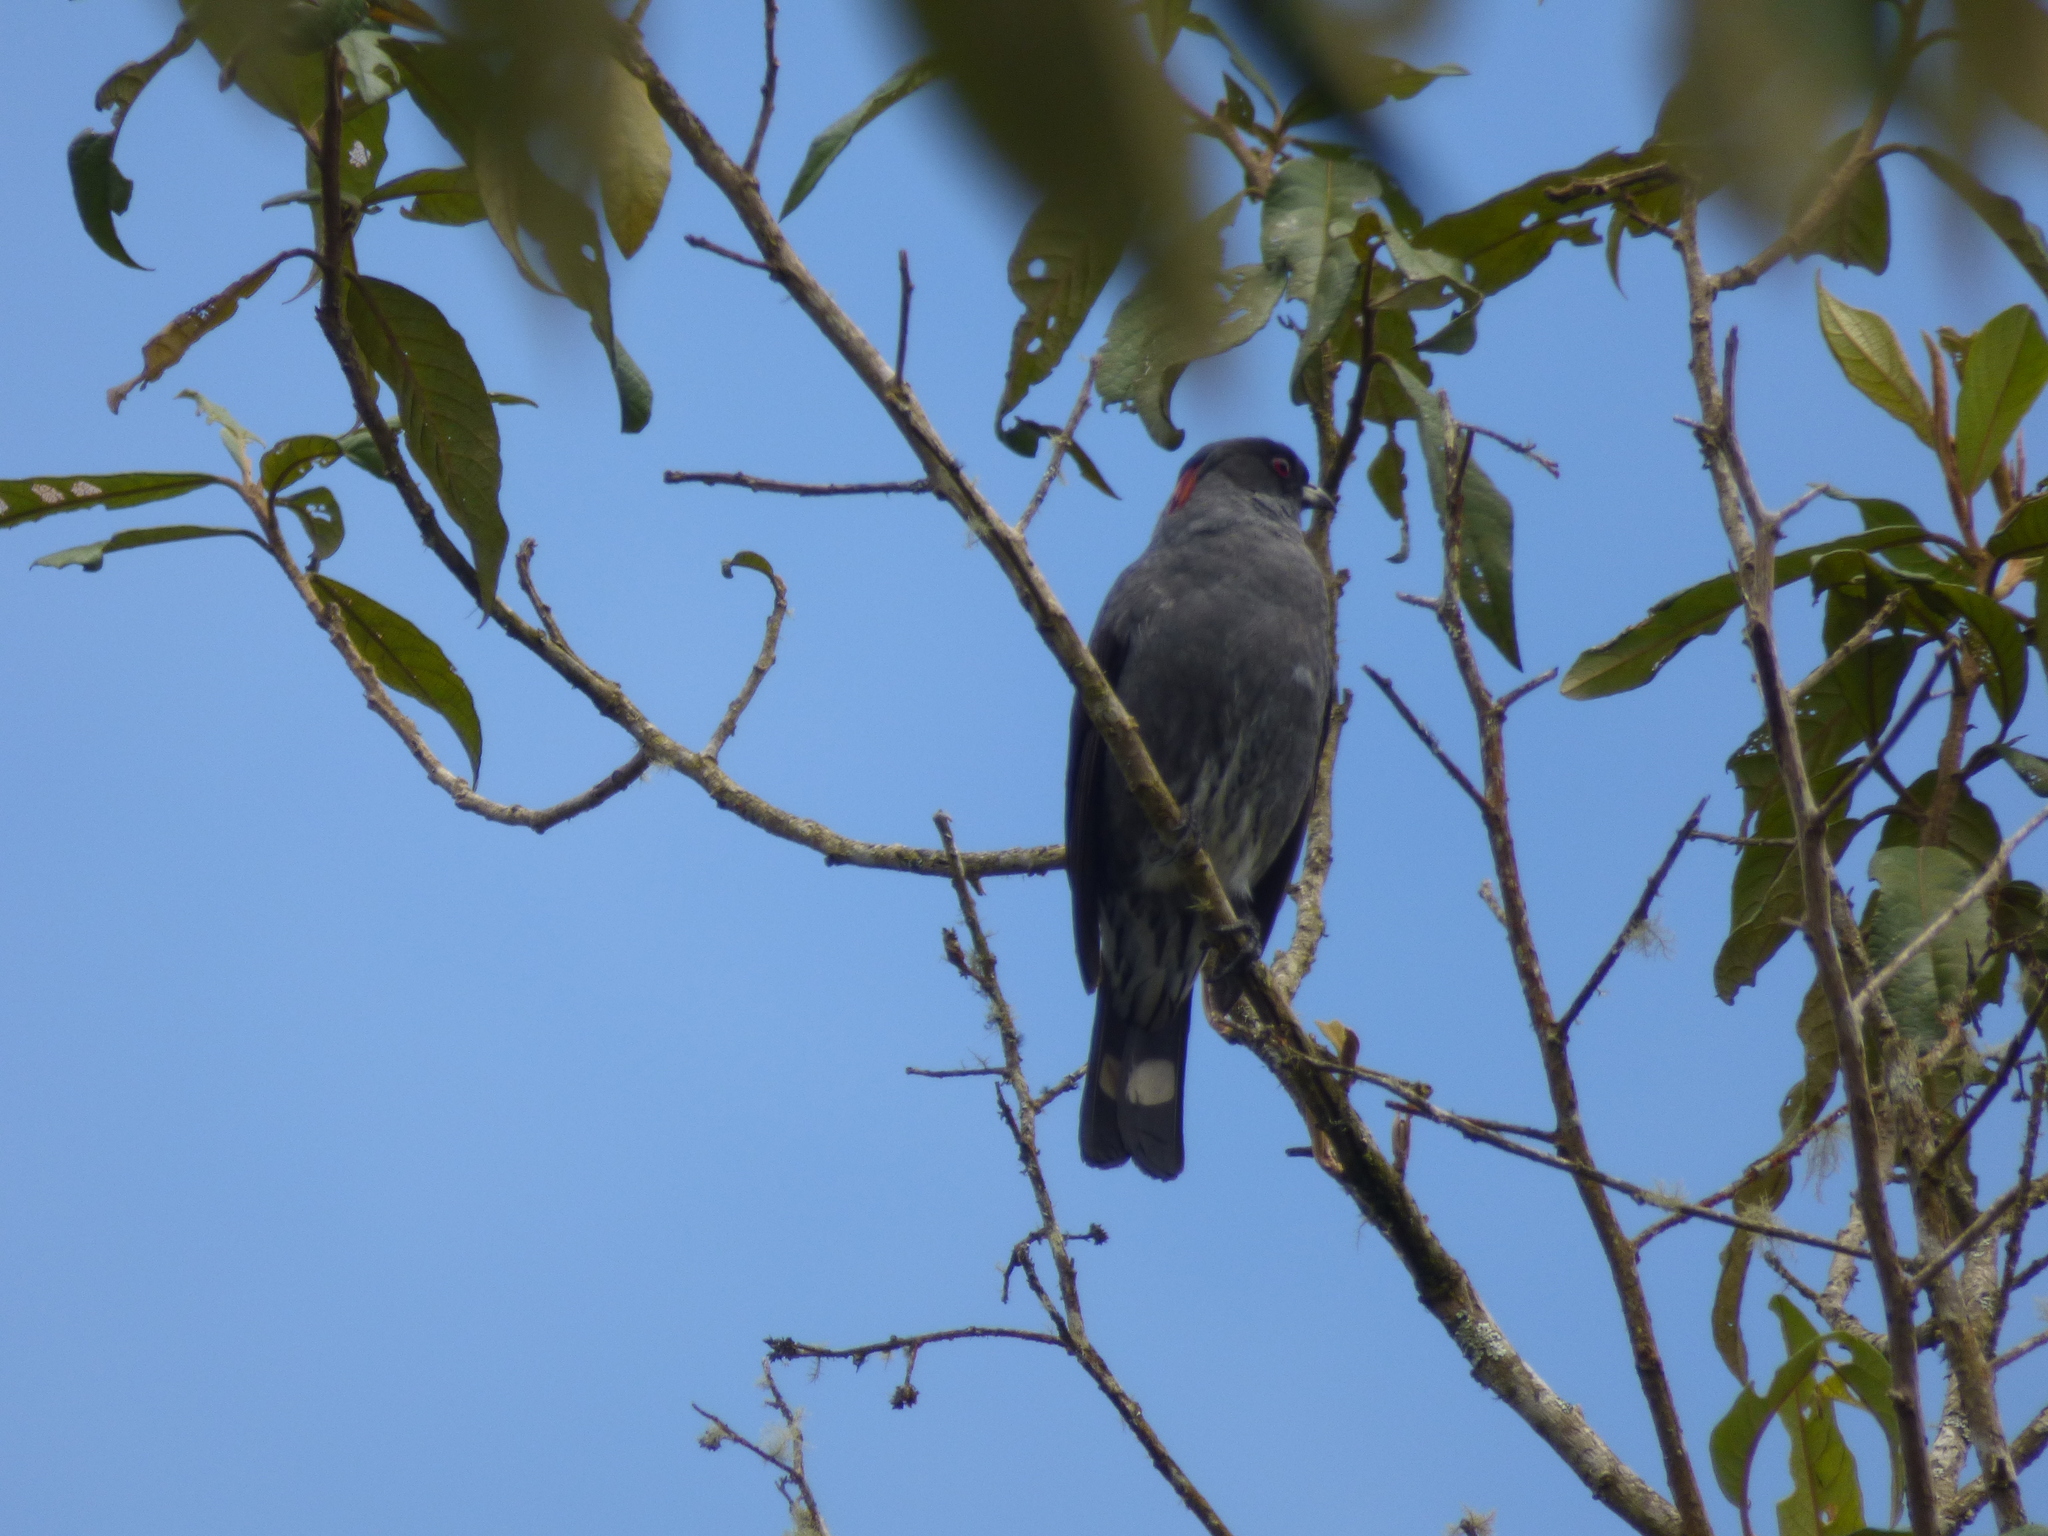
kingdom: Animalia
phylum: Chordata
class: Aves
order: Passeriformes
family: Cotingidae
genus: Ampelion
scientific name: Ampelion rubrocristatus
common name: Red-crested cotinga
